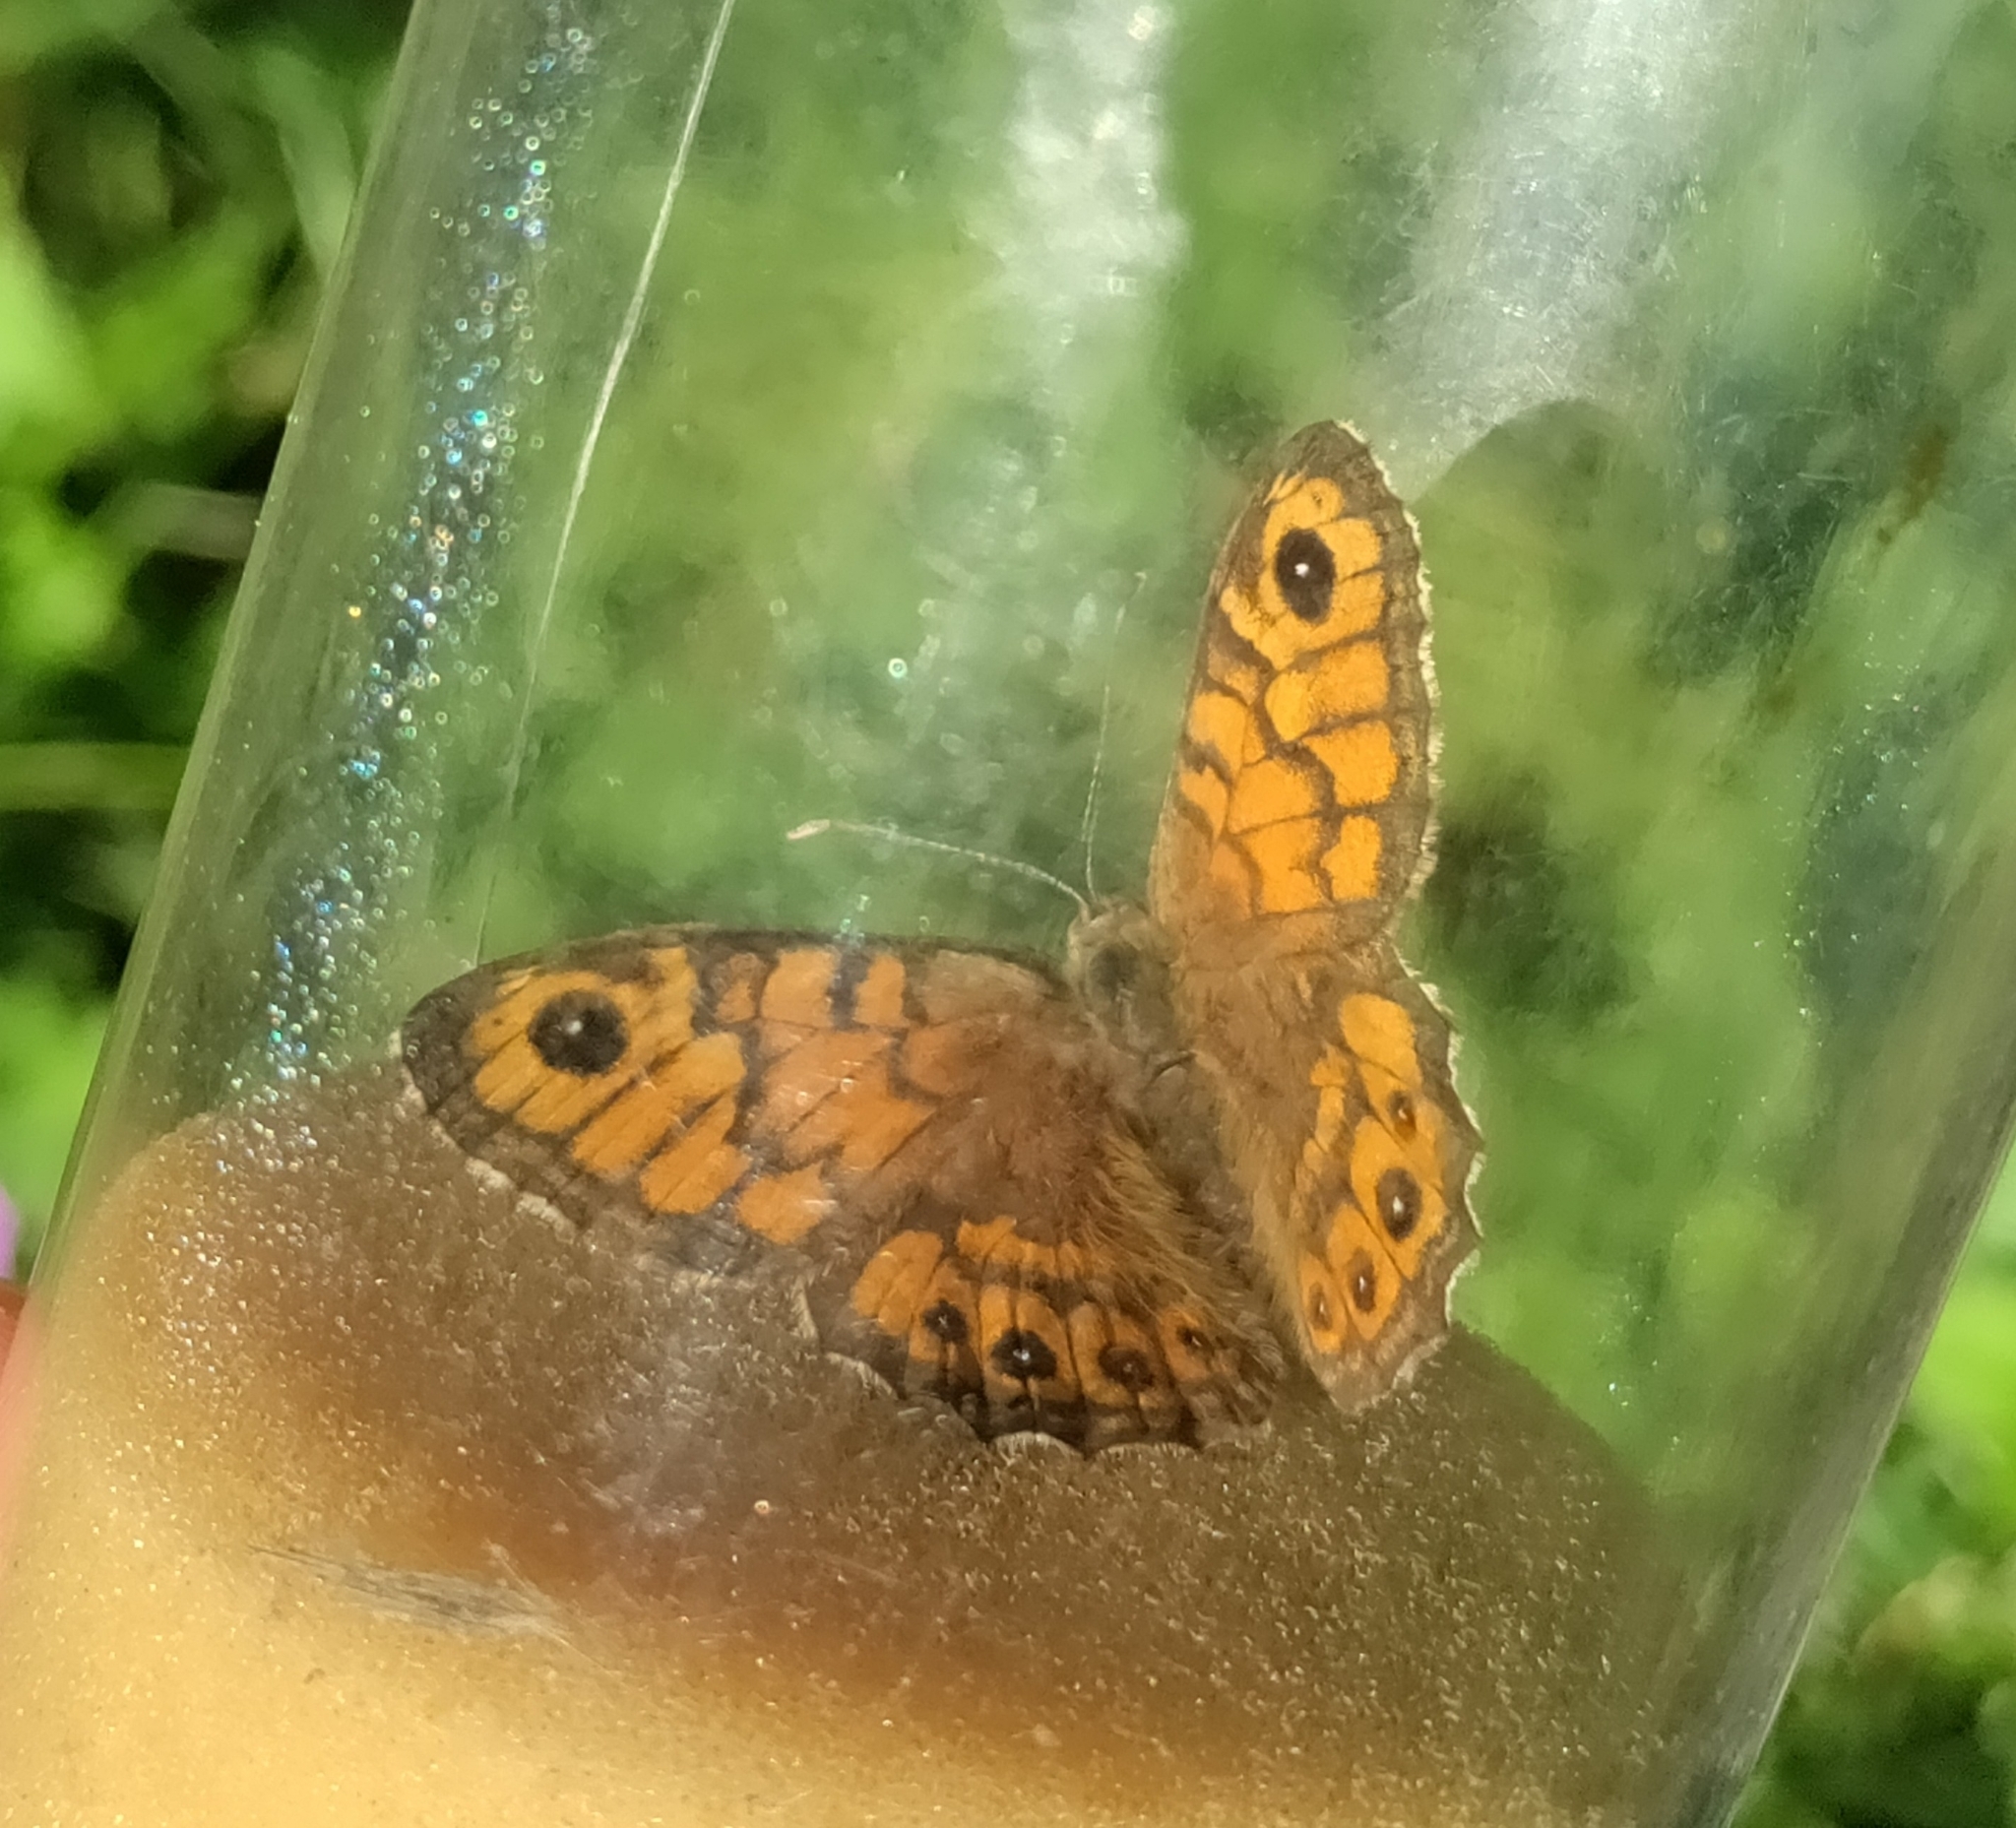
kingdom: Animalia
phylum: Arthropoda
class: Insecta
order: Lepidoptera
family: Nymphalidae
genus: Pararge
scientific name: Pararge Lasiommata megera
